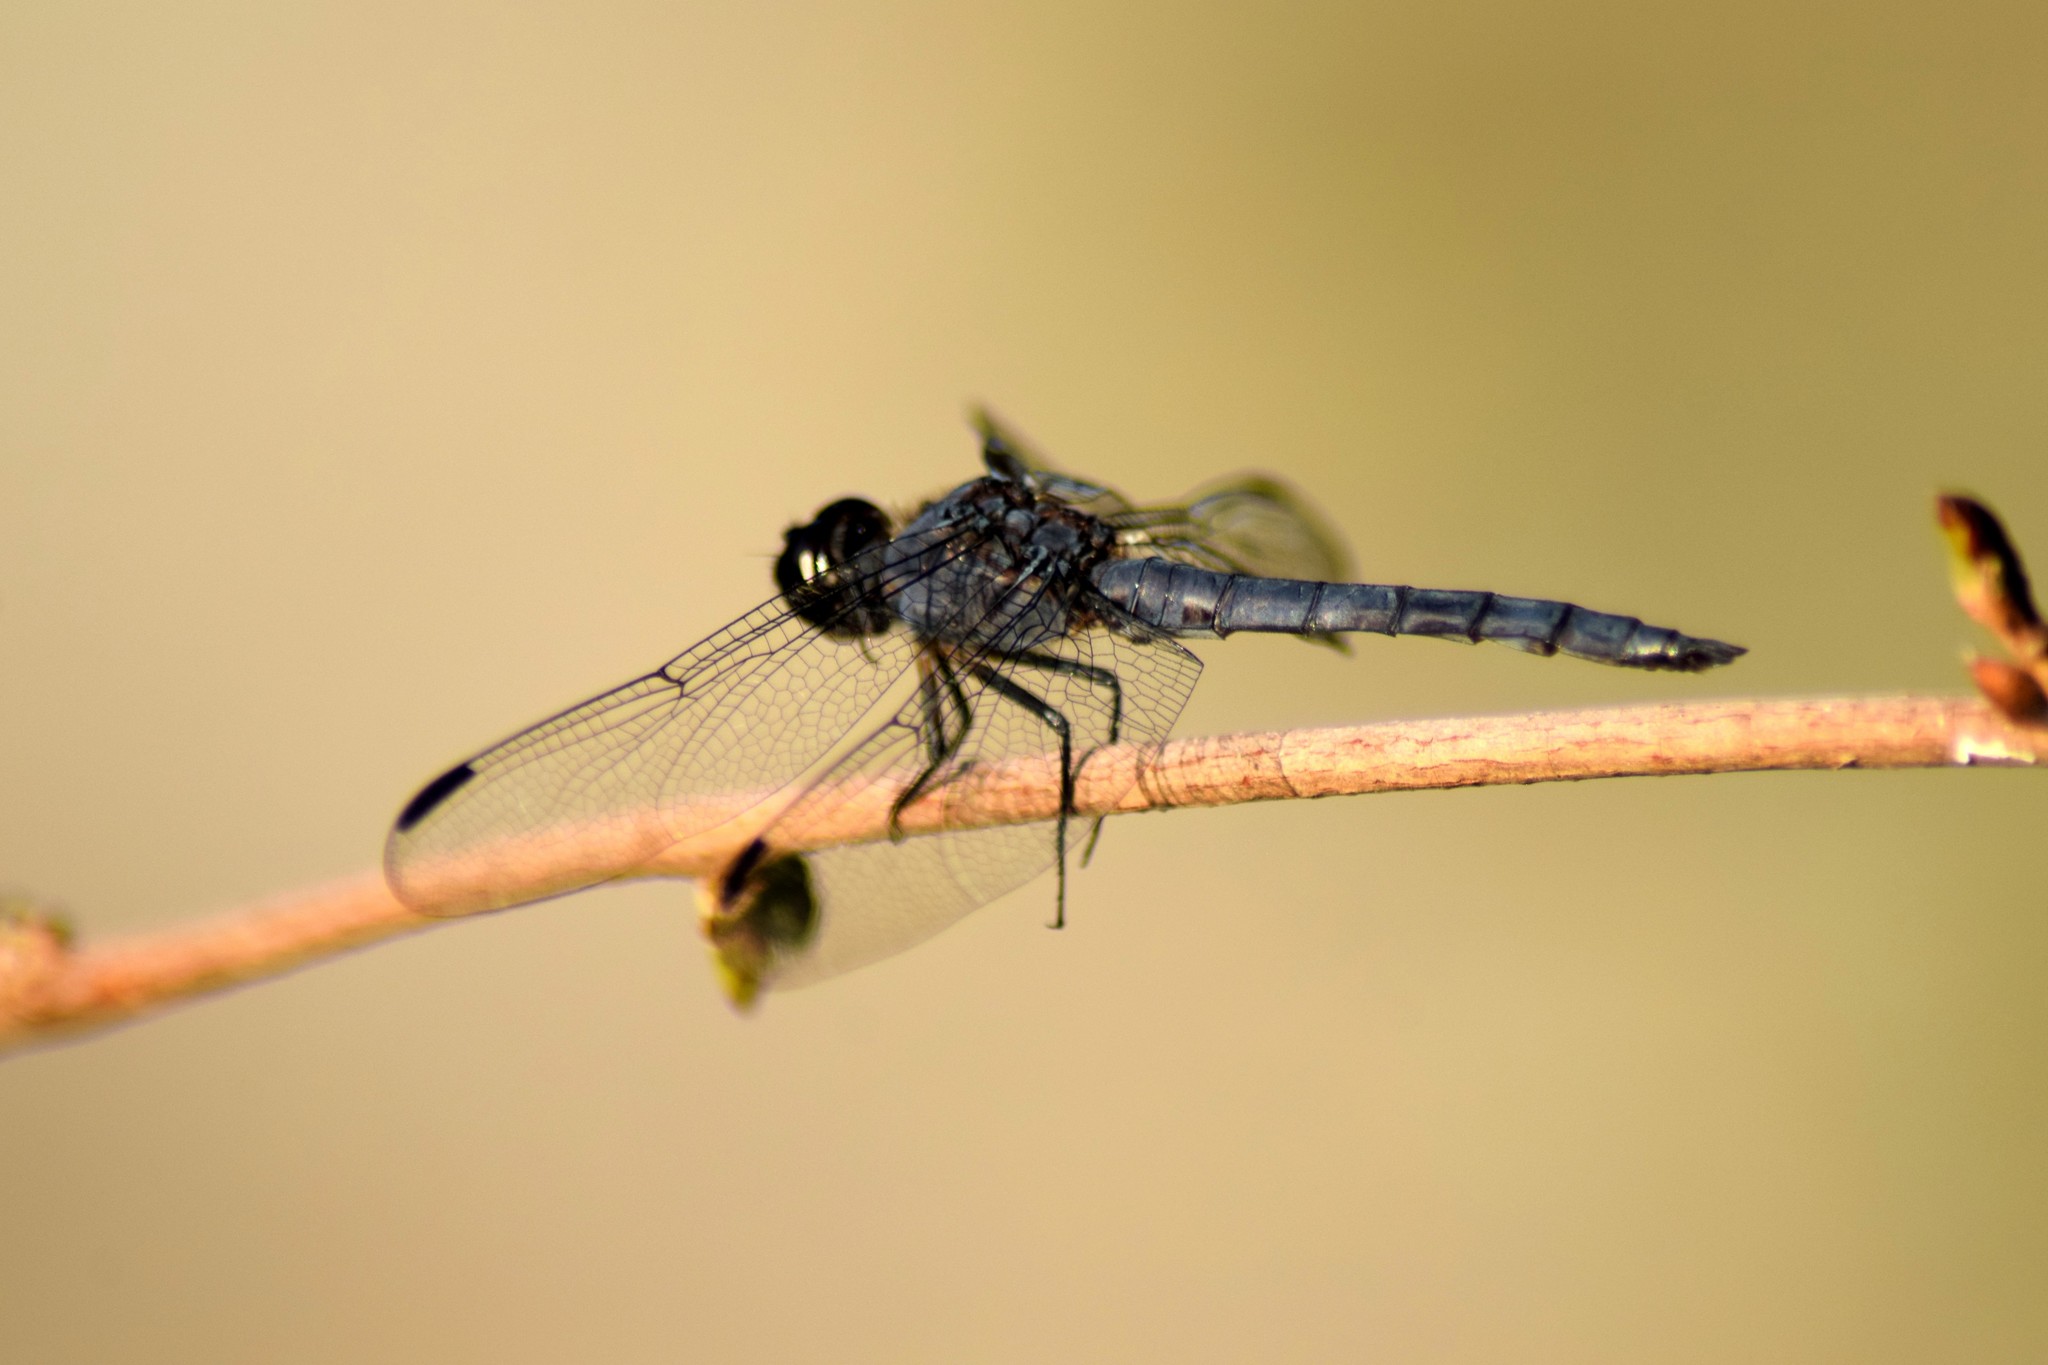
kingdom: Animalia
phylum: Arthropoda
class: Insecta
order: Odonata
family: Libellulidae
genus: Libellula
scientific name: Libellula incesta
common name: Slaty skimmer
